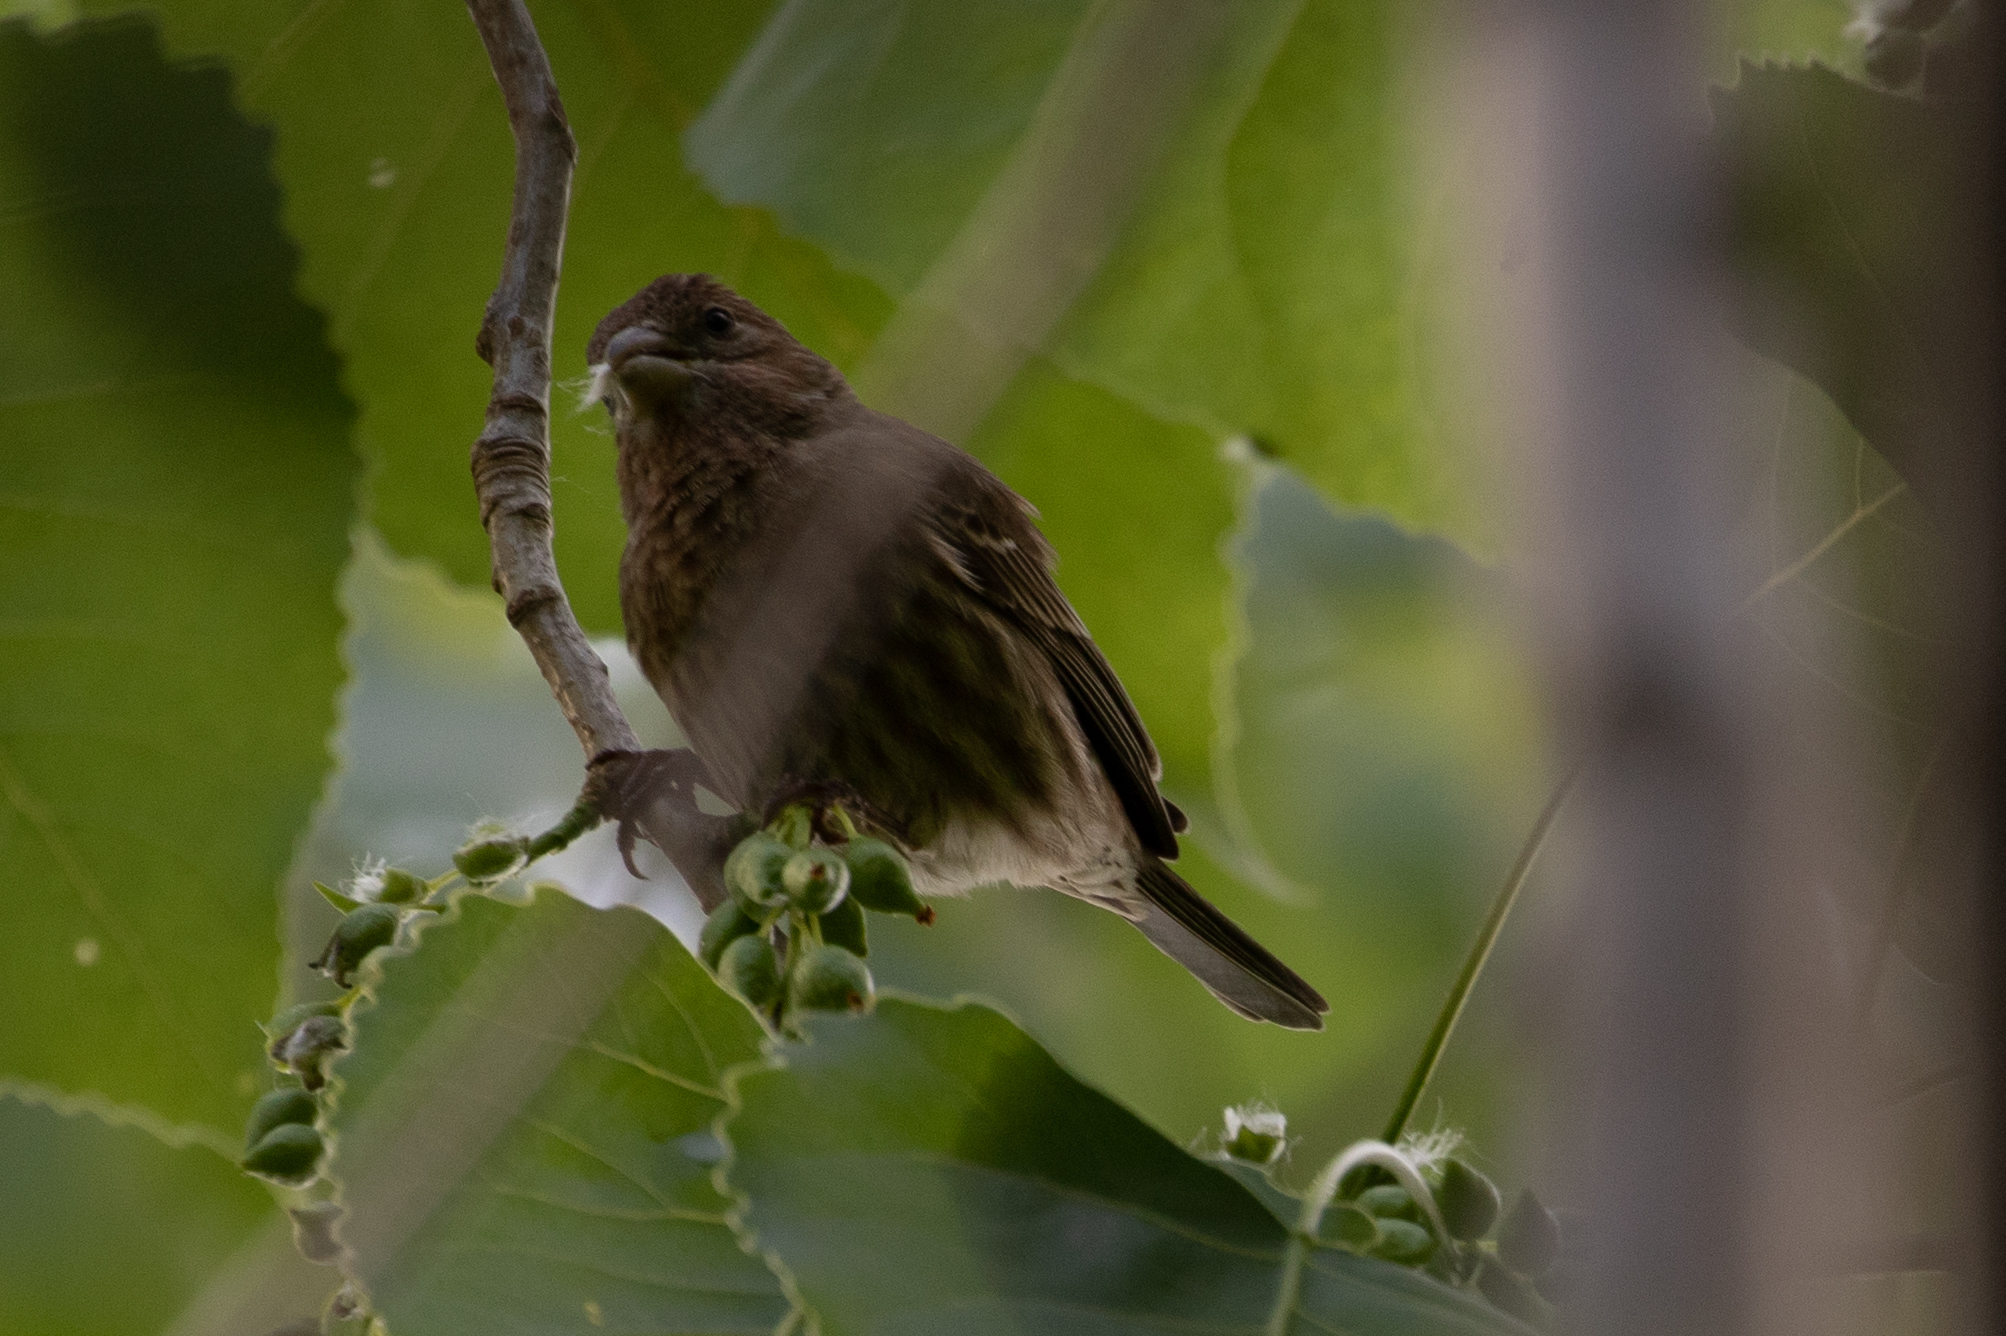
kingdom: Animalia
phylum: Chordata
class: Aves
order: Passeriformes
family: Fringillidae
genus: Haemorhous
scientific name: Haemorhous mexicanus
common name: House finch
